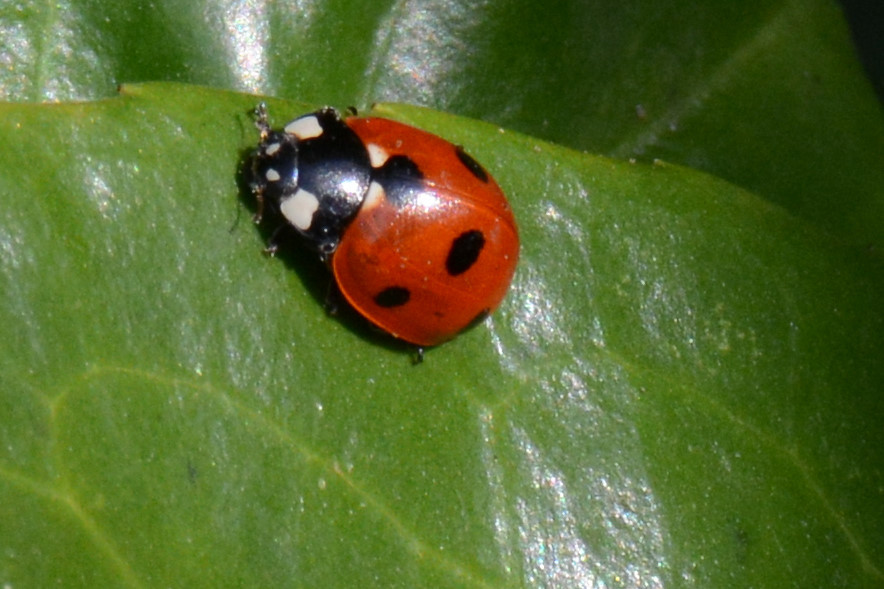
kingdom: Animalia
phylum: Arthropoda
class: Insecta
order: Coleoptera
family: Coccinellidae
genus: Coccinella
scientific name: Coccinella septempunctata
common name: Sevenspotted lady beetle
